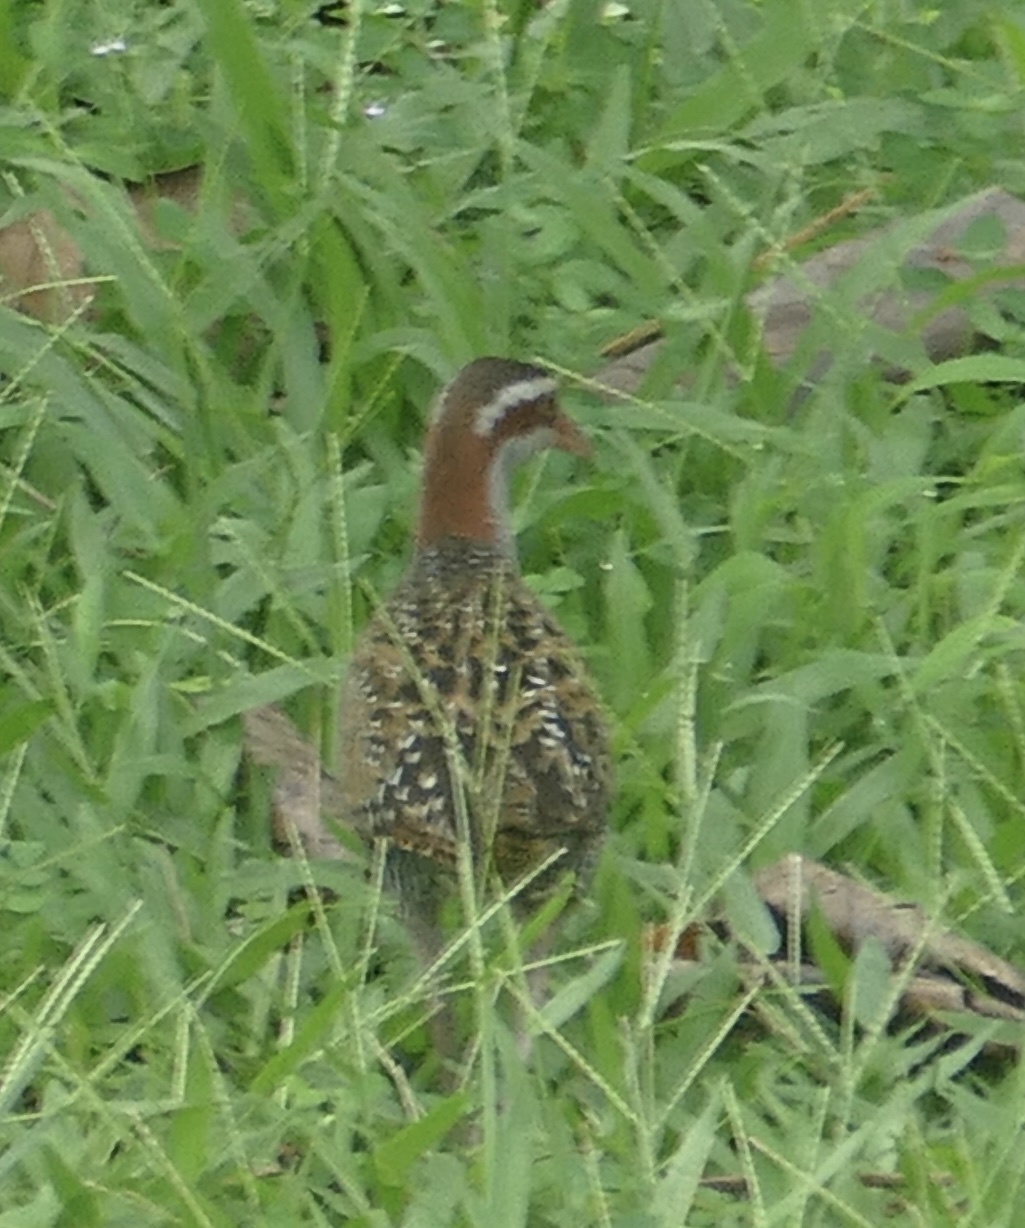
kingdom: Animalia
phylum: Chordata
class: Aves
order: Gruiformes
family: Rallidae
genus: Gallirallus
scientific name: Gallirallus philippensis
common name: Buff-banded rail
